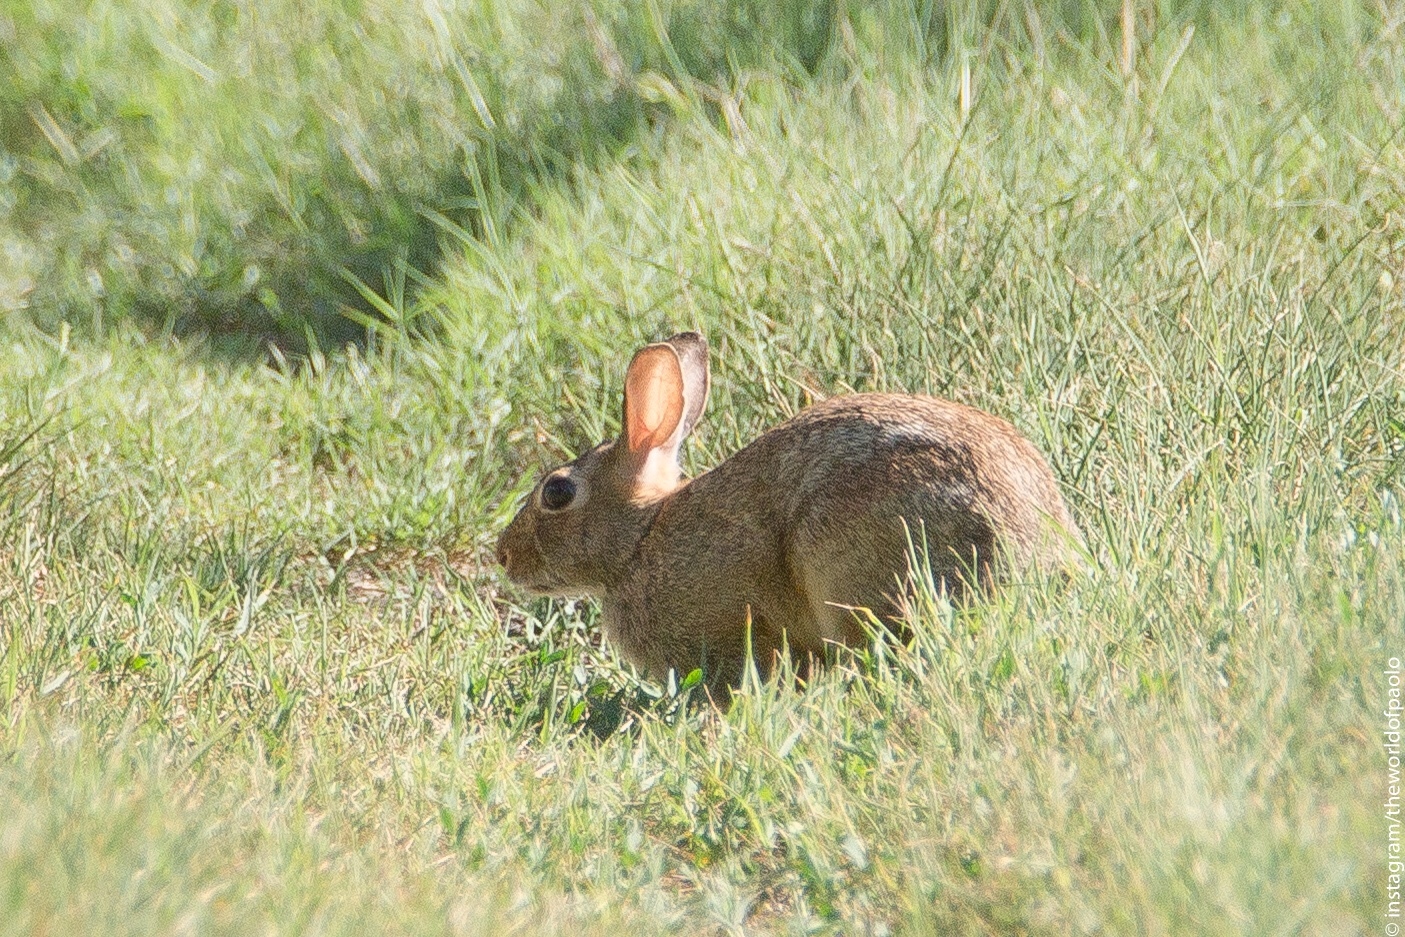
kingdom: Animalia
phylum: Chordata
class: Mammalia
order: Lagomorpha
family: Leporidae
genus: Sylvilagus
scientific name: Sylvilagus floridanus
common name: Eastern cottontail
